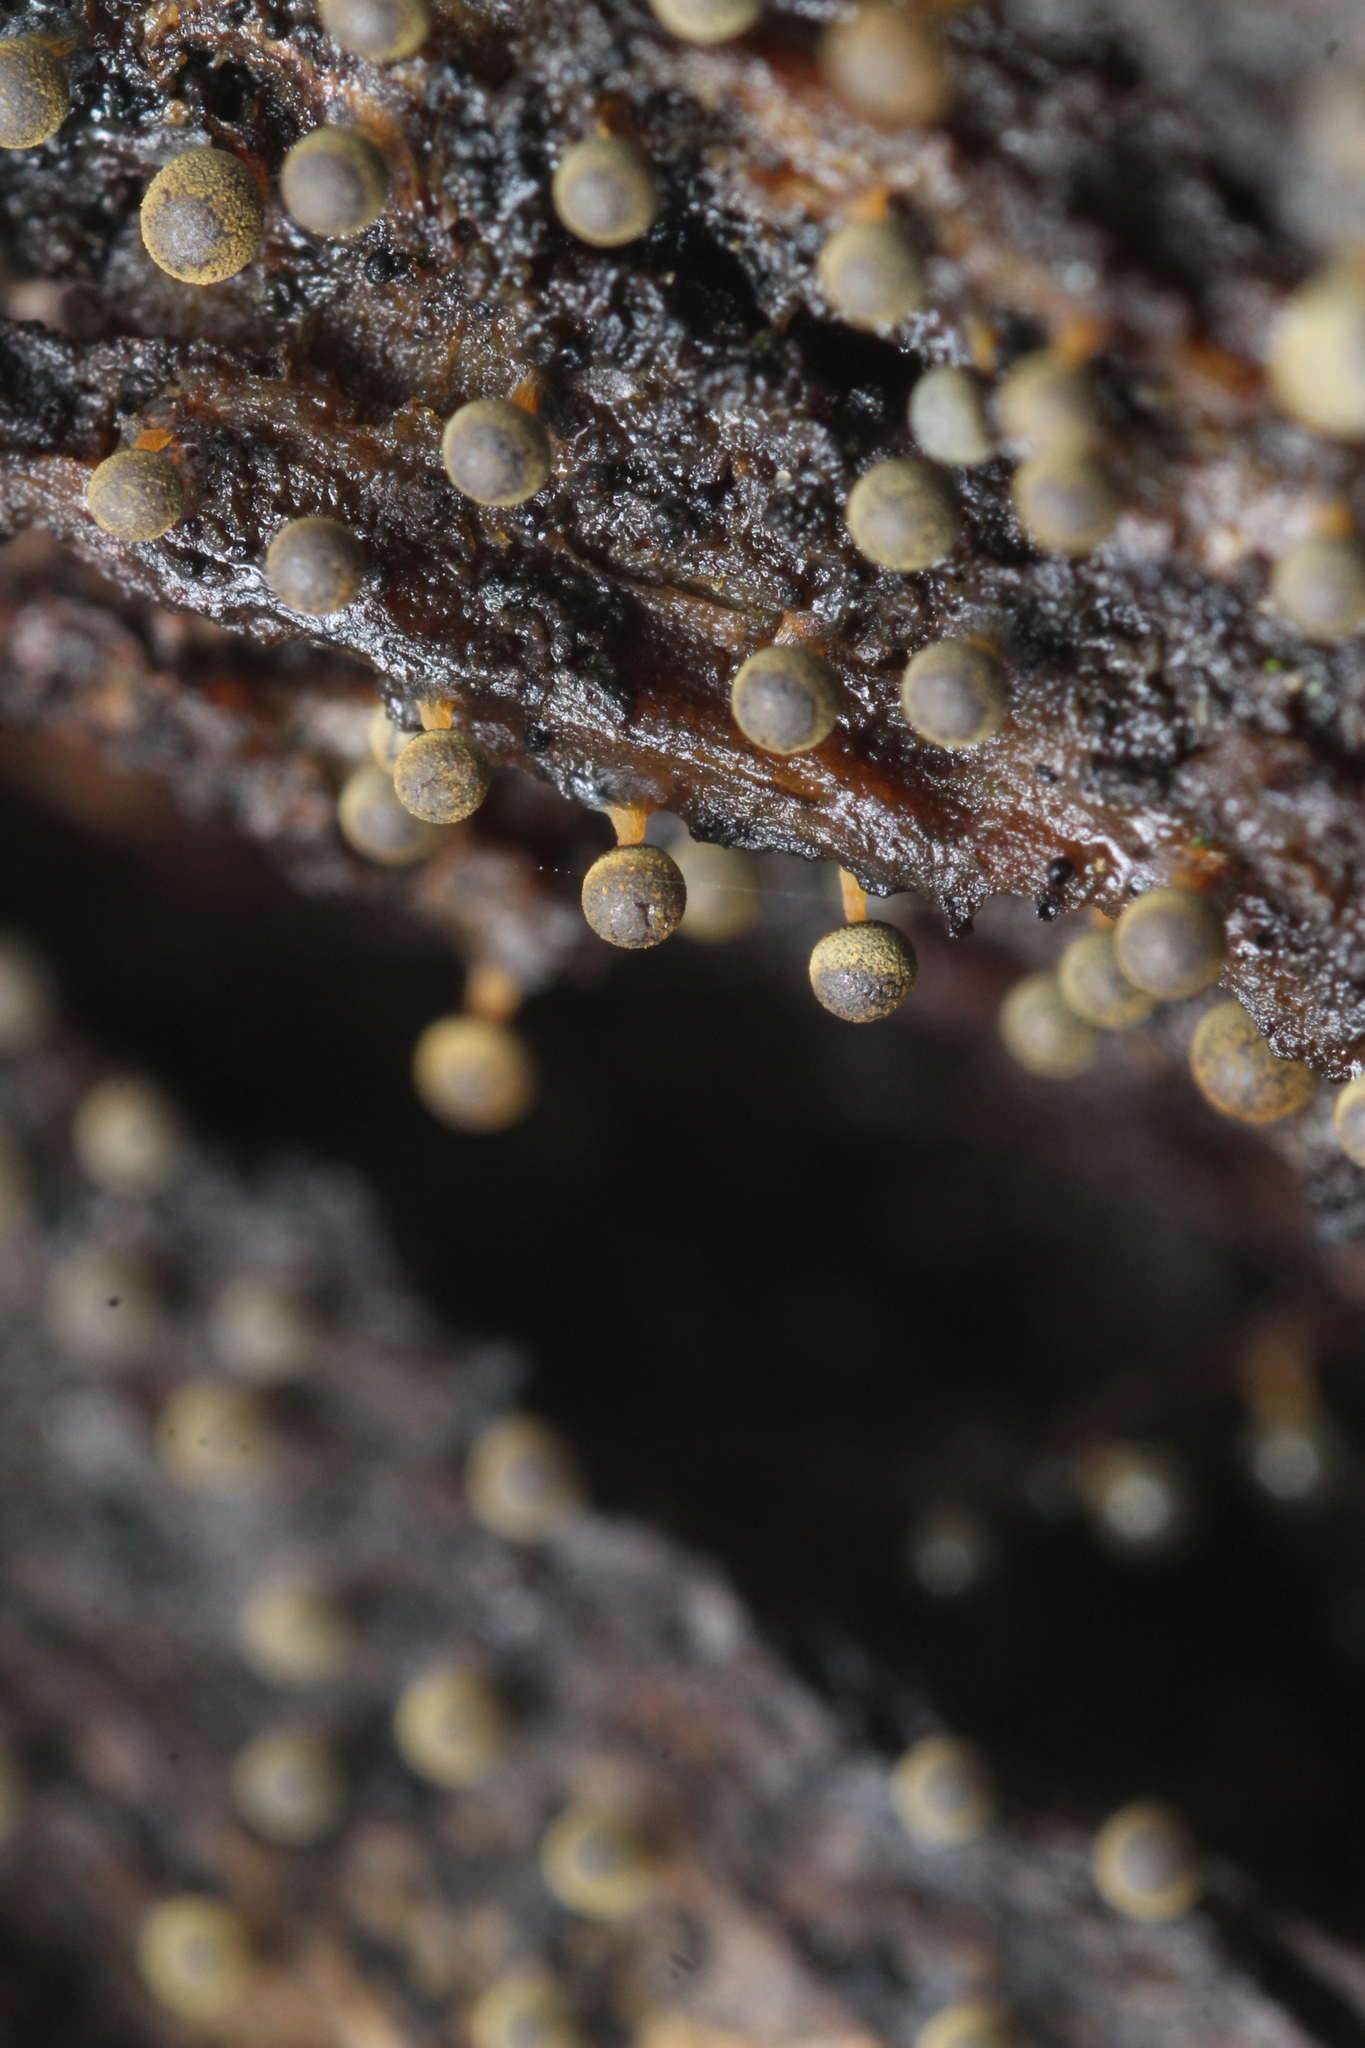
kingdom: Protozoa
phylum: Mycetozoa
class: Myxomycetes
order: Physarales
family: Physaraceae
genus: Physarum
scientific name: Physarum carneum
